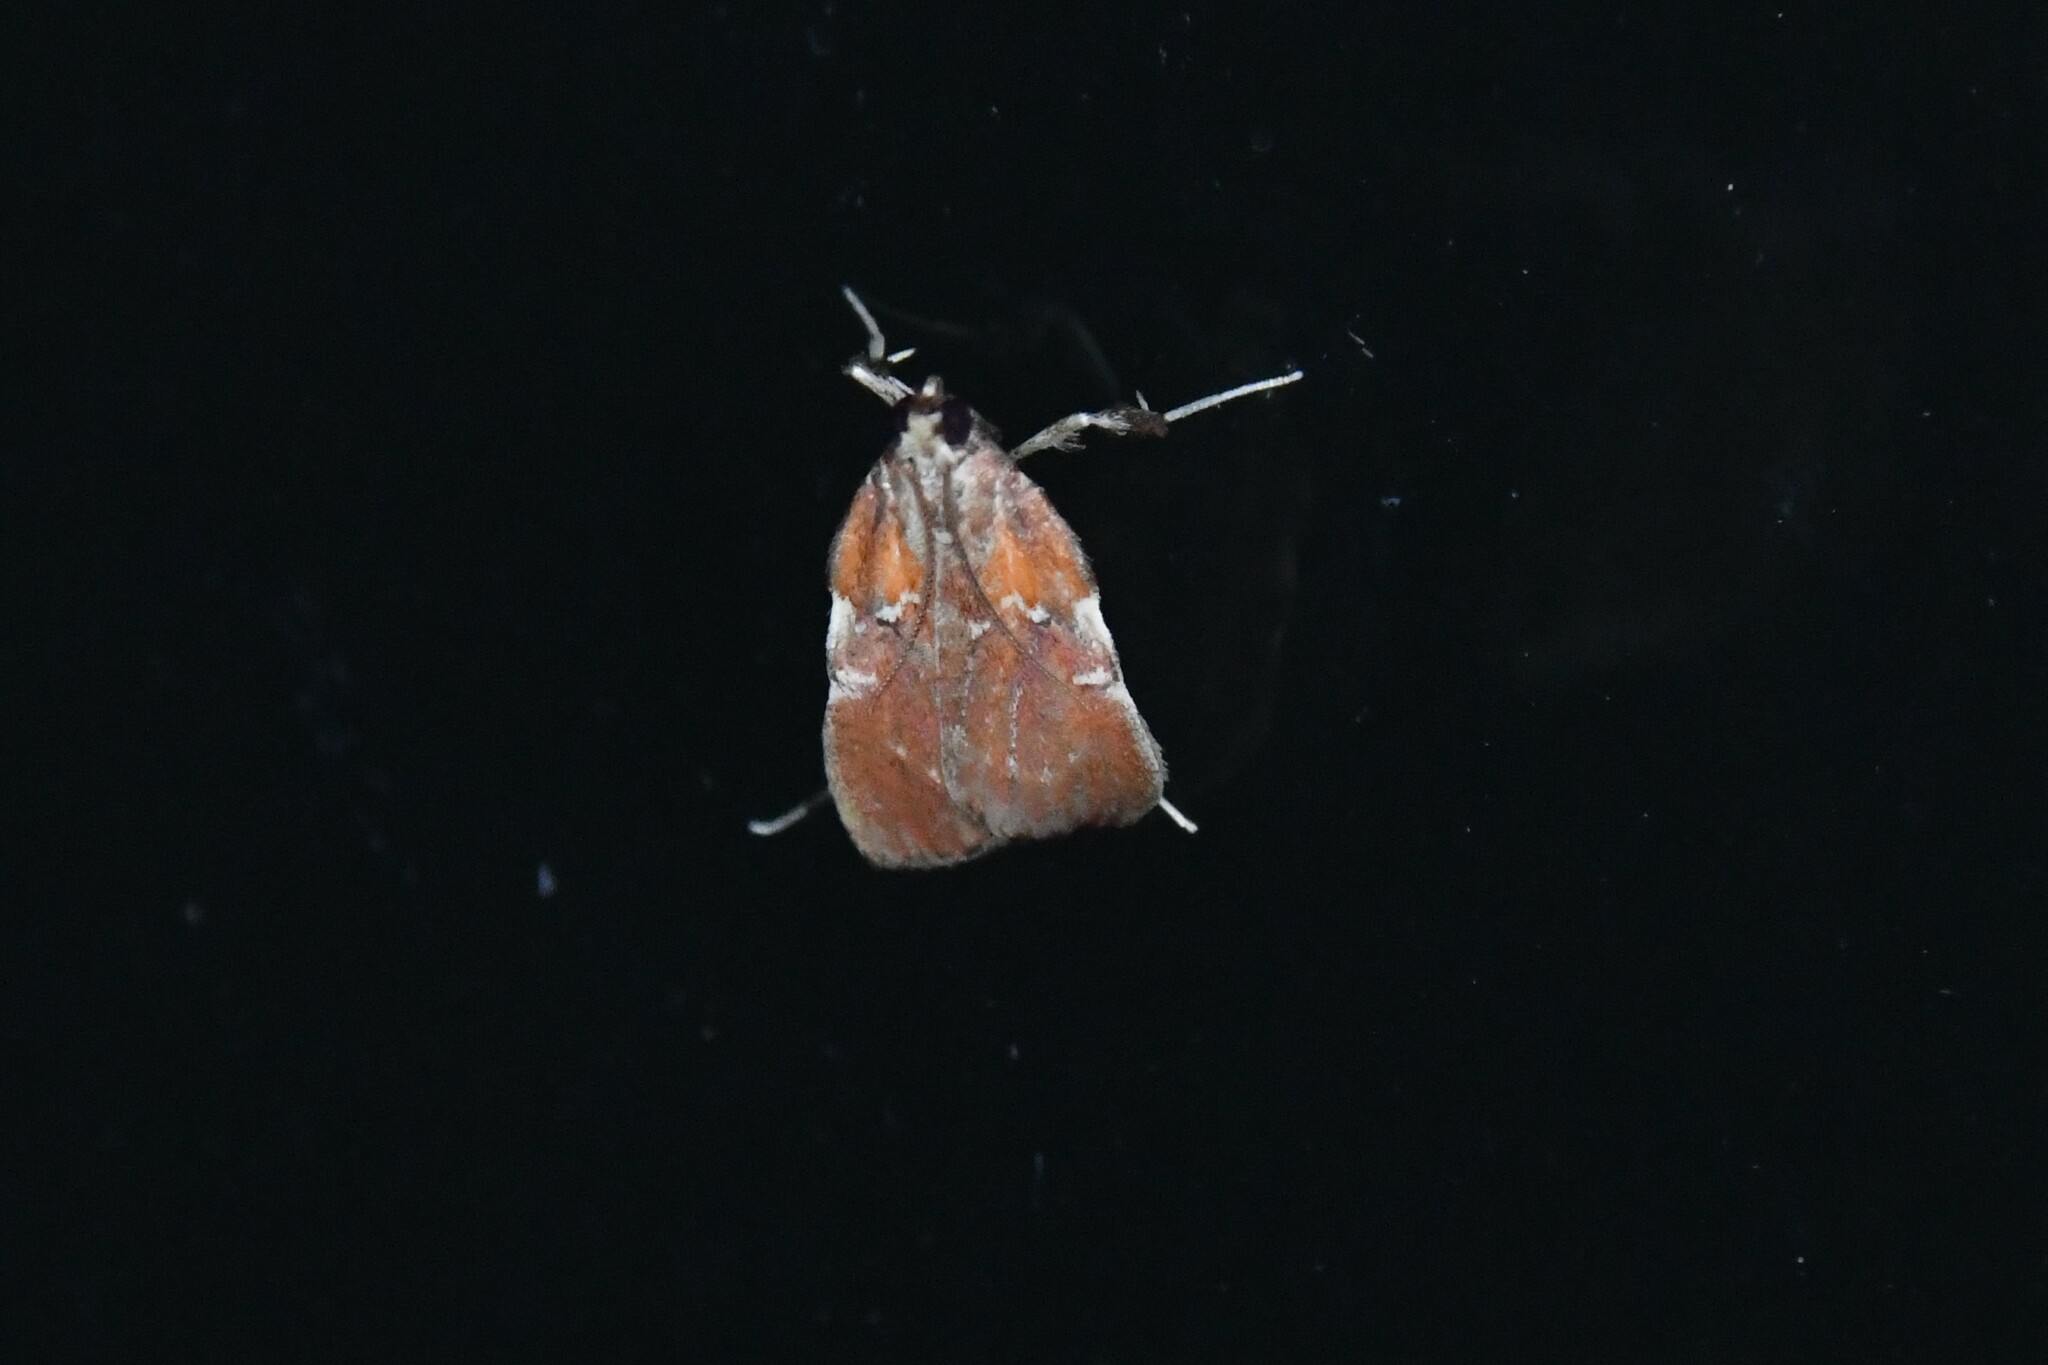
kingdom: Animalia
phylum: Arthropoda
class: Insecta
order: Lepidoptera
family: Pyralidae
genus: Galasa
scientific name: Galasa nigrinodis
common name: Boxwood leaftier moth
